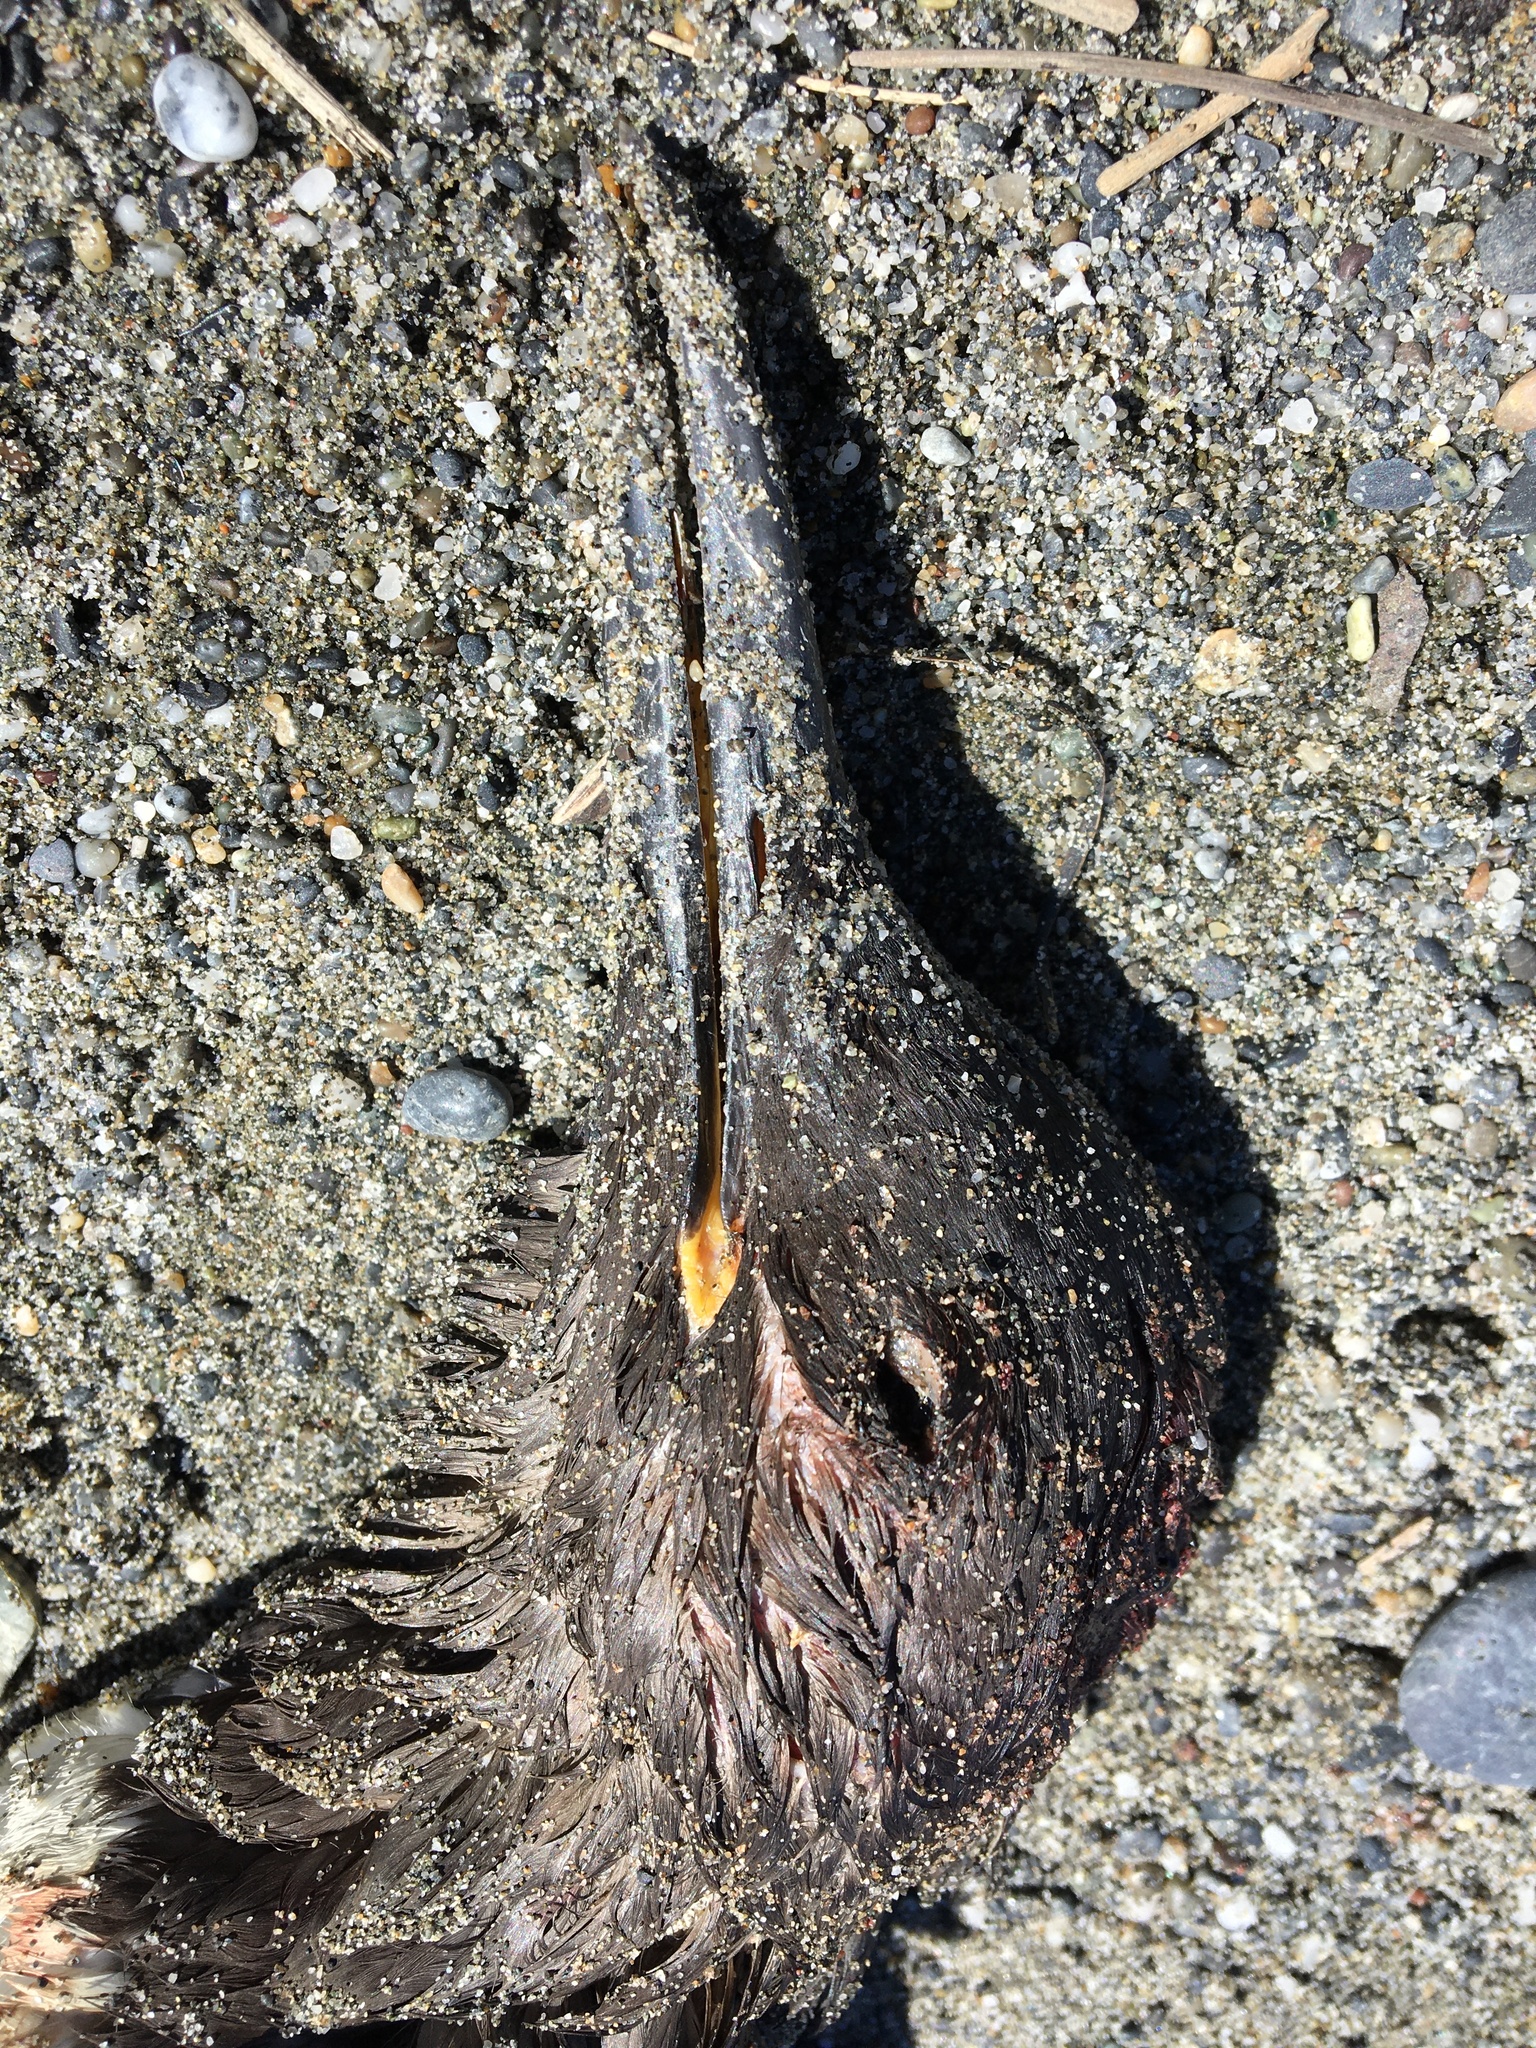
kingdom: Animalia
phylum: Chordata
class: Aves
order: Charadriiformes
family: Alcidae
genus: Uria
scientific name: Uria aalge
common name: Common murre
